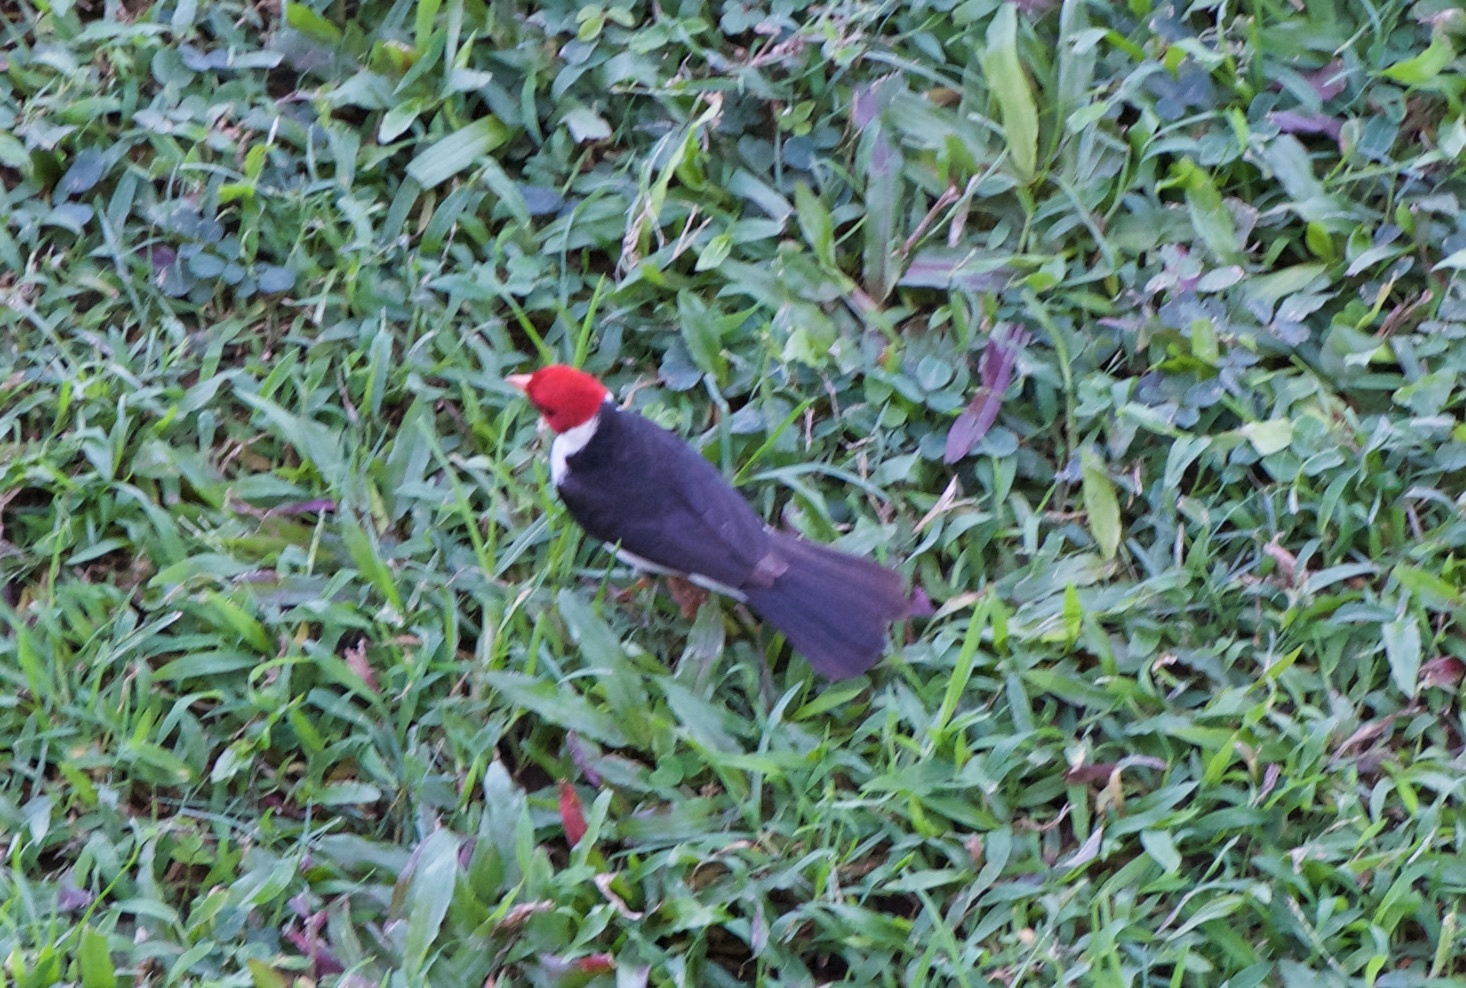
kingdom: Animalia
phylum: Chordata
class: Aves
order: Passeriformes
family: Thraupidae
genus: Paroaria
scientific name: Paroaria capitata
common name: Yellow-billed cardinal
